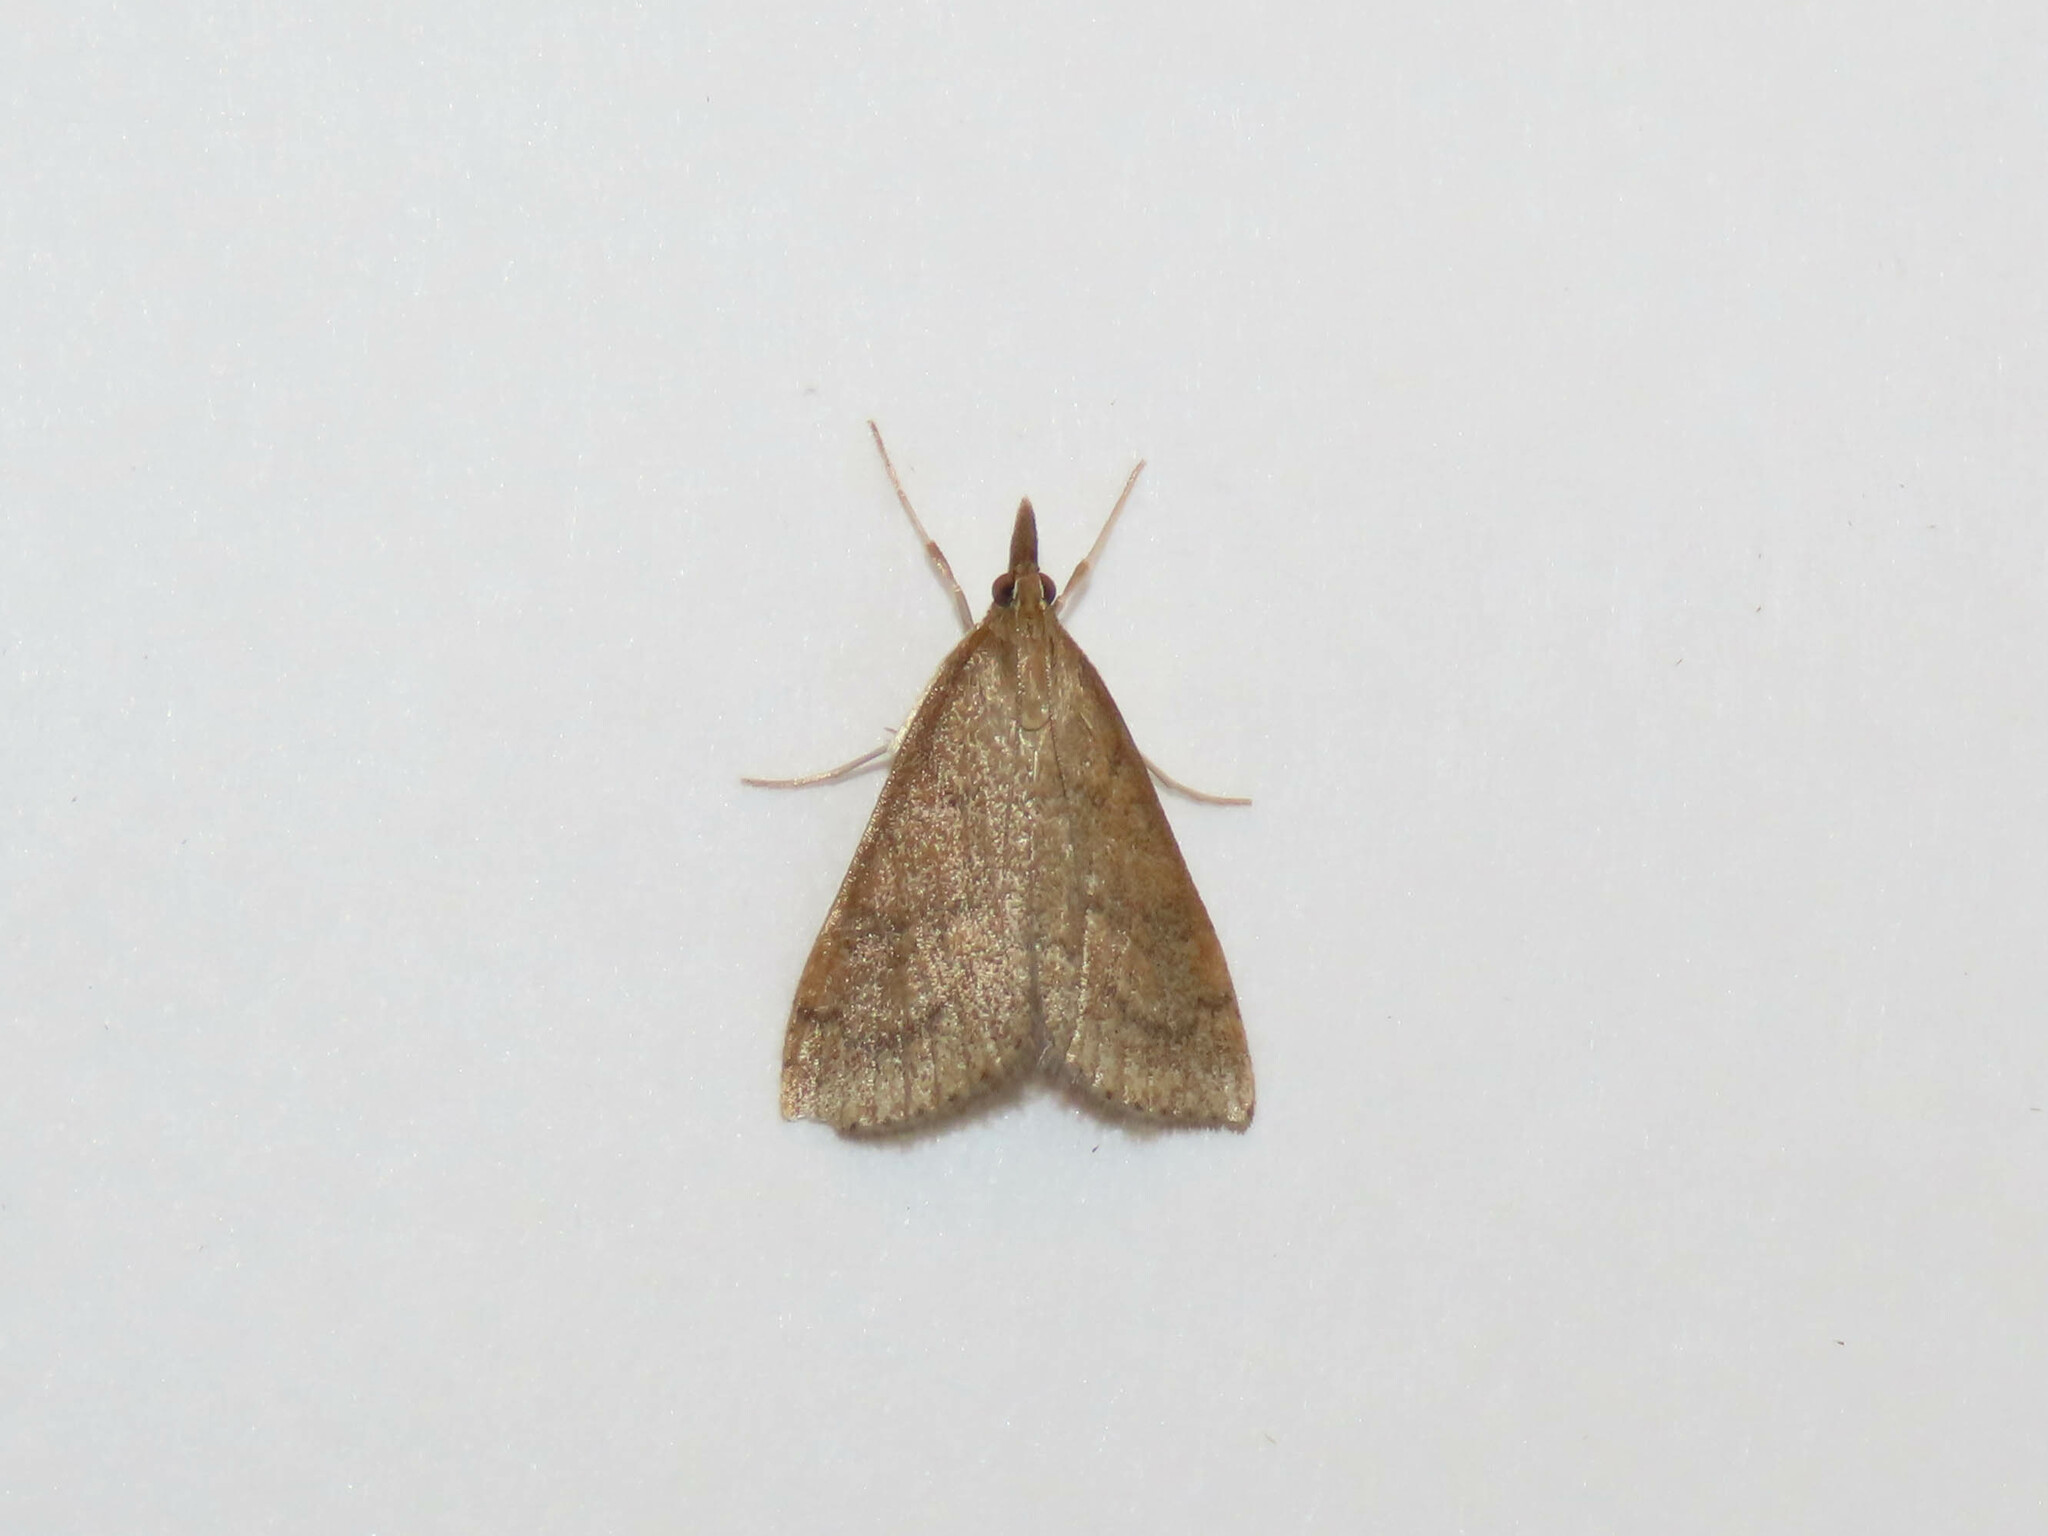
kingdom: Animalia
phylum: Arthropoda
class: Insecta
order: Lepidoptera
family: Crambidae
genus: Udea
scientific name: Udea rubigalis
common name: Celery leaftier moth
